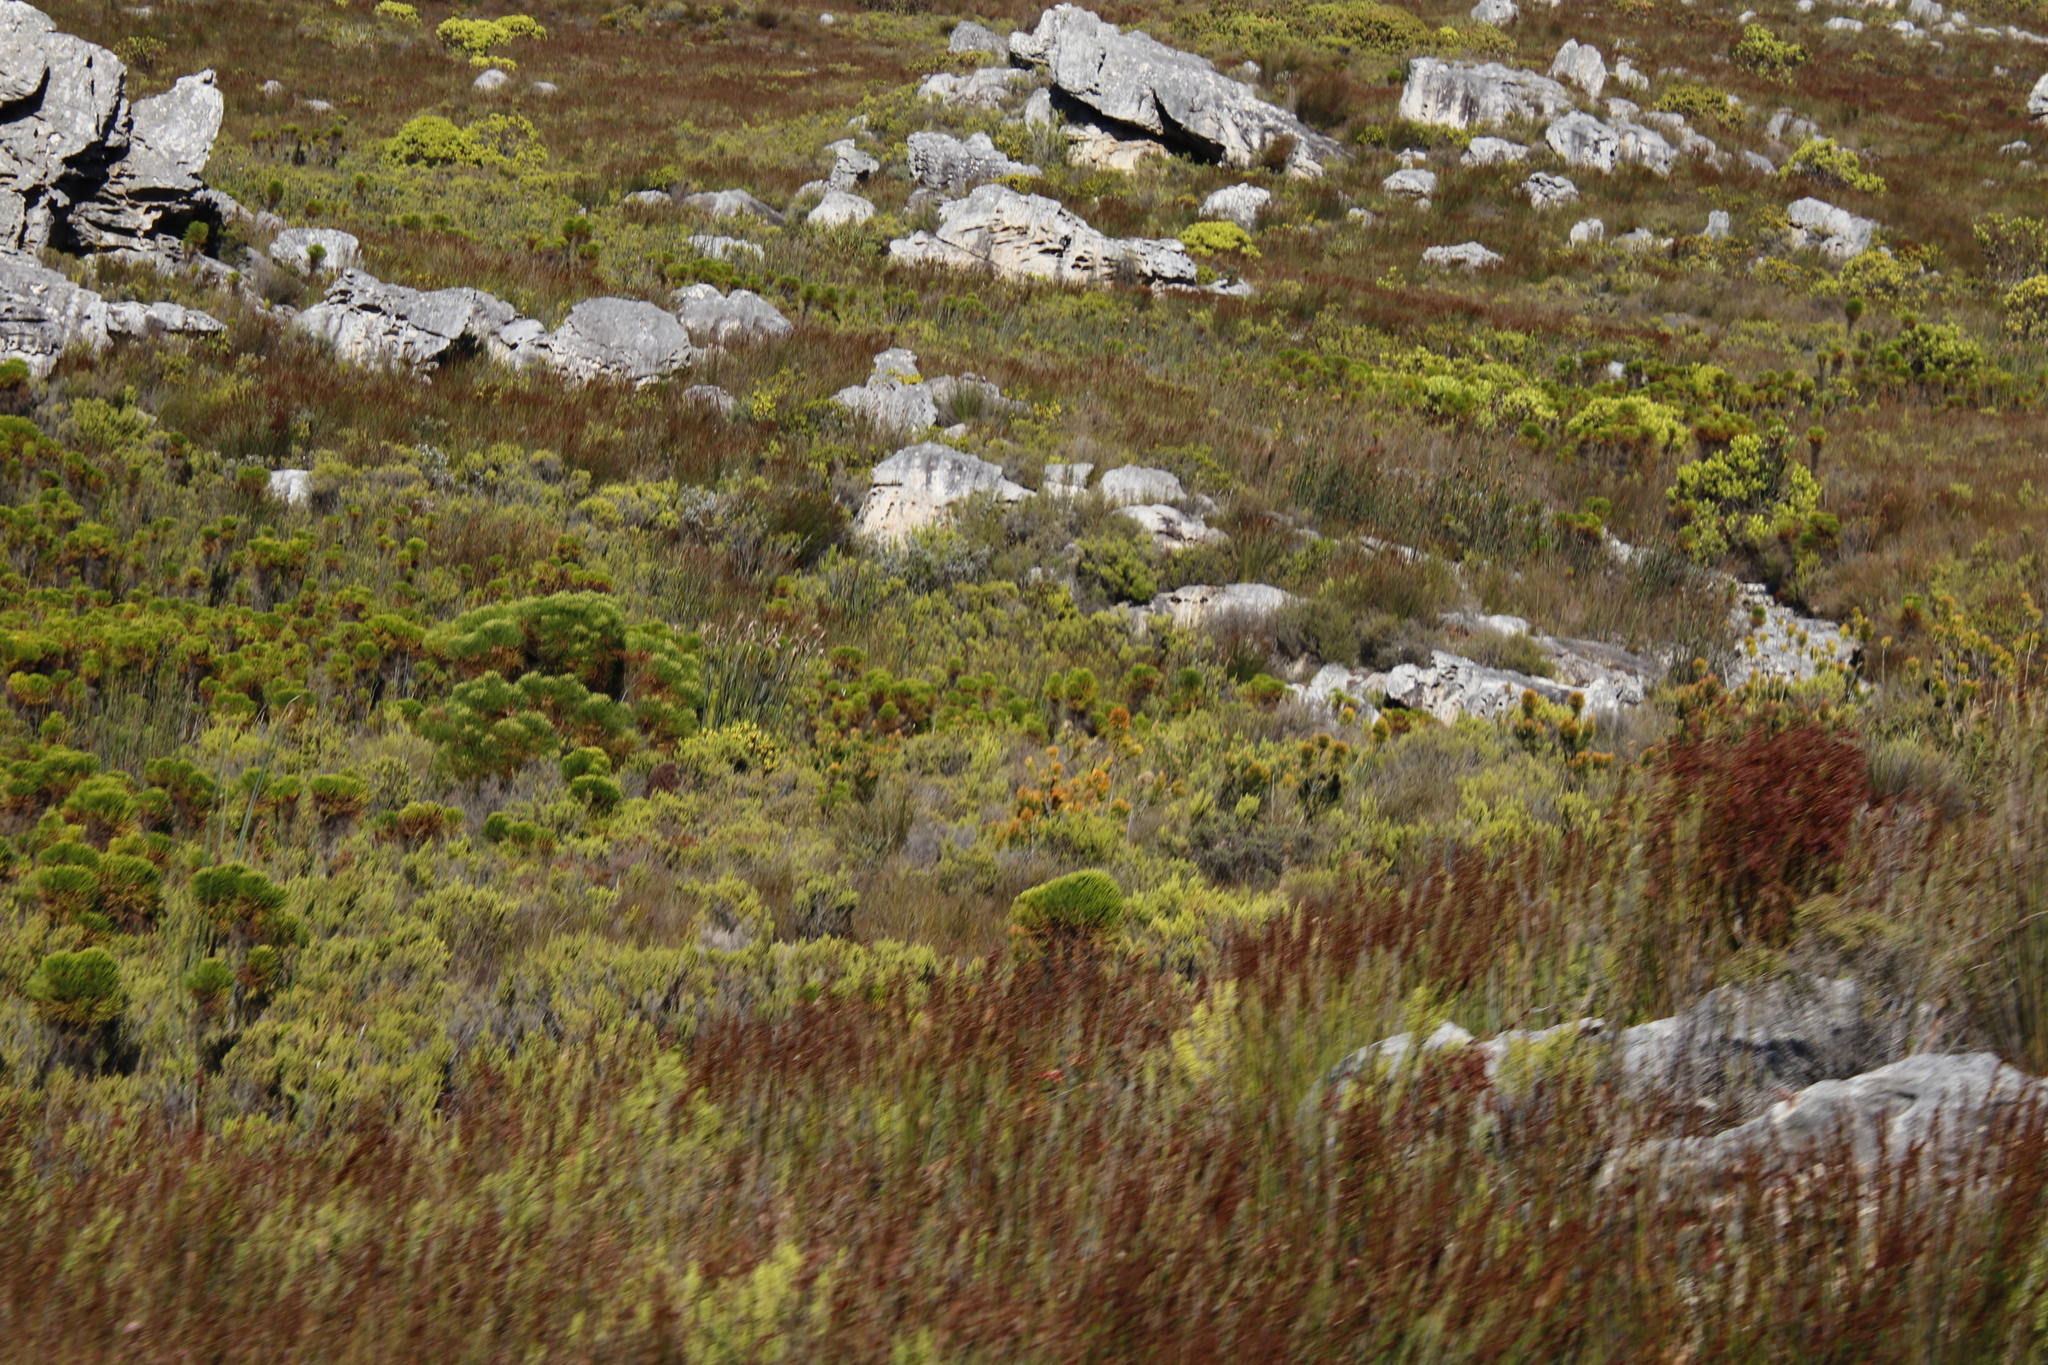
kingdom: Plantae
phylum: Tracheophyta
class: Magnoliopsida
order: Lamiales
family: Stilbaceae
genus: Retzia
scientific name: Retzia capensis
